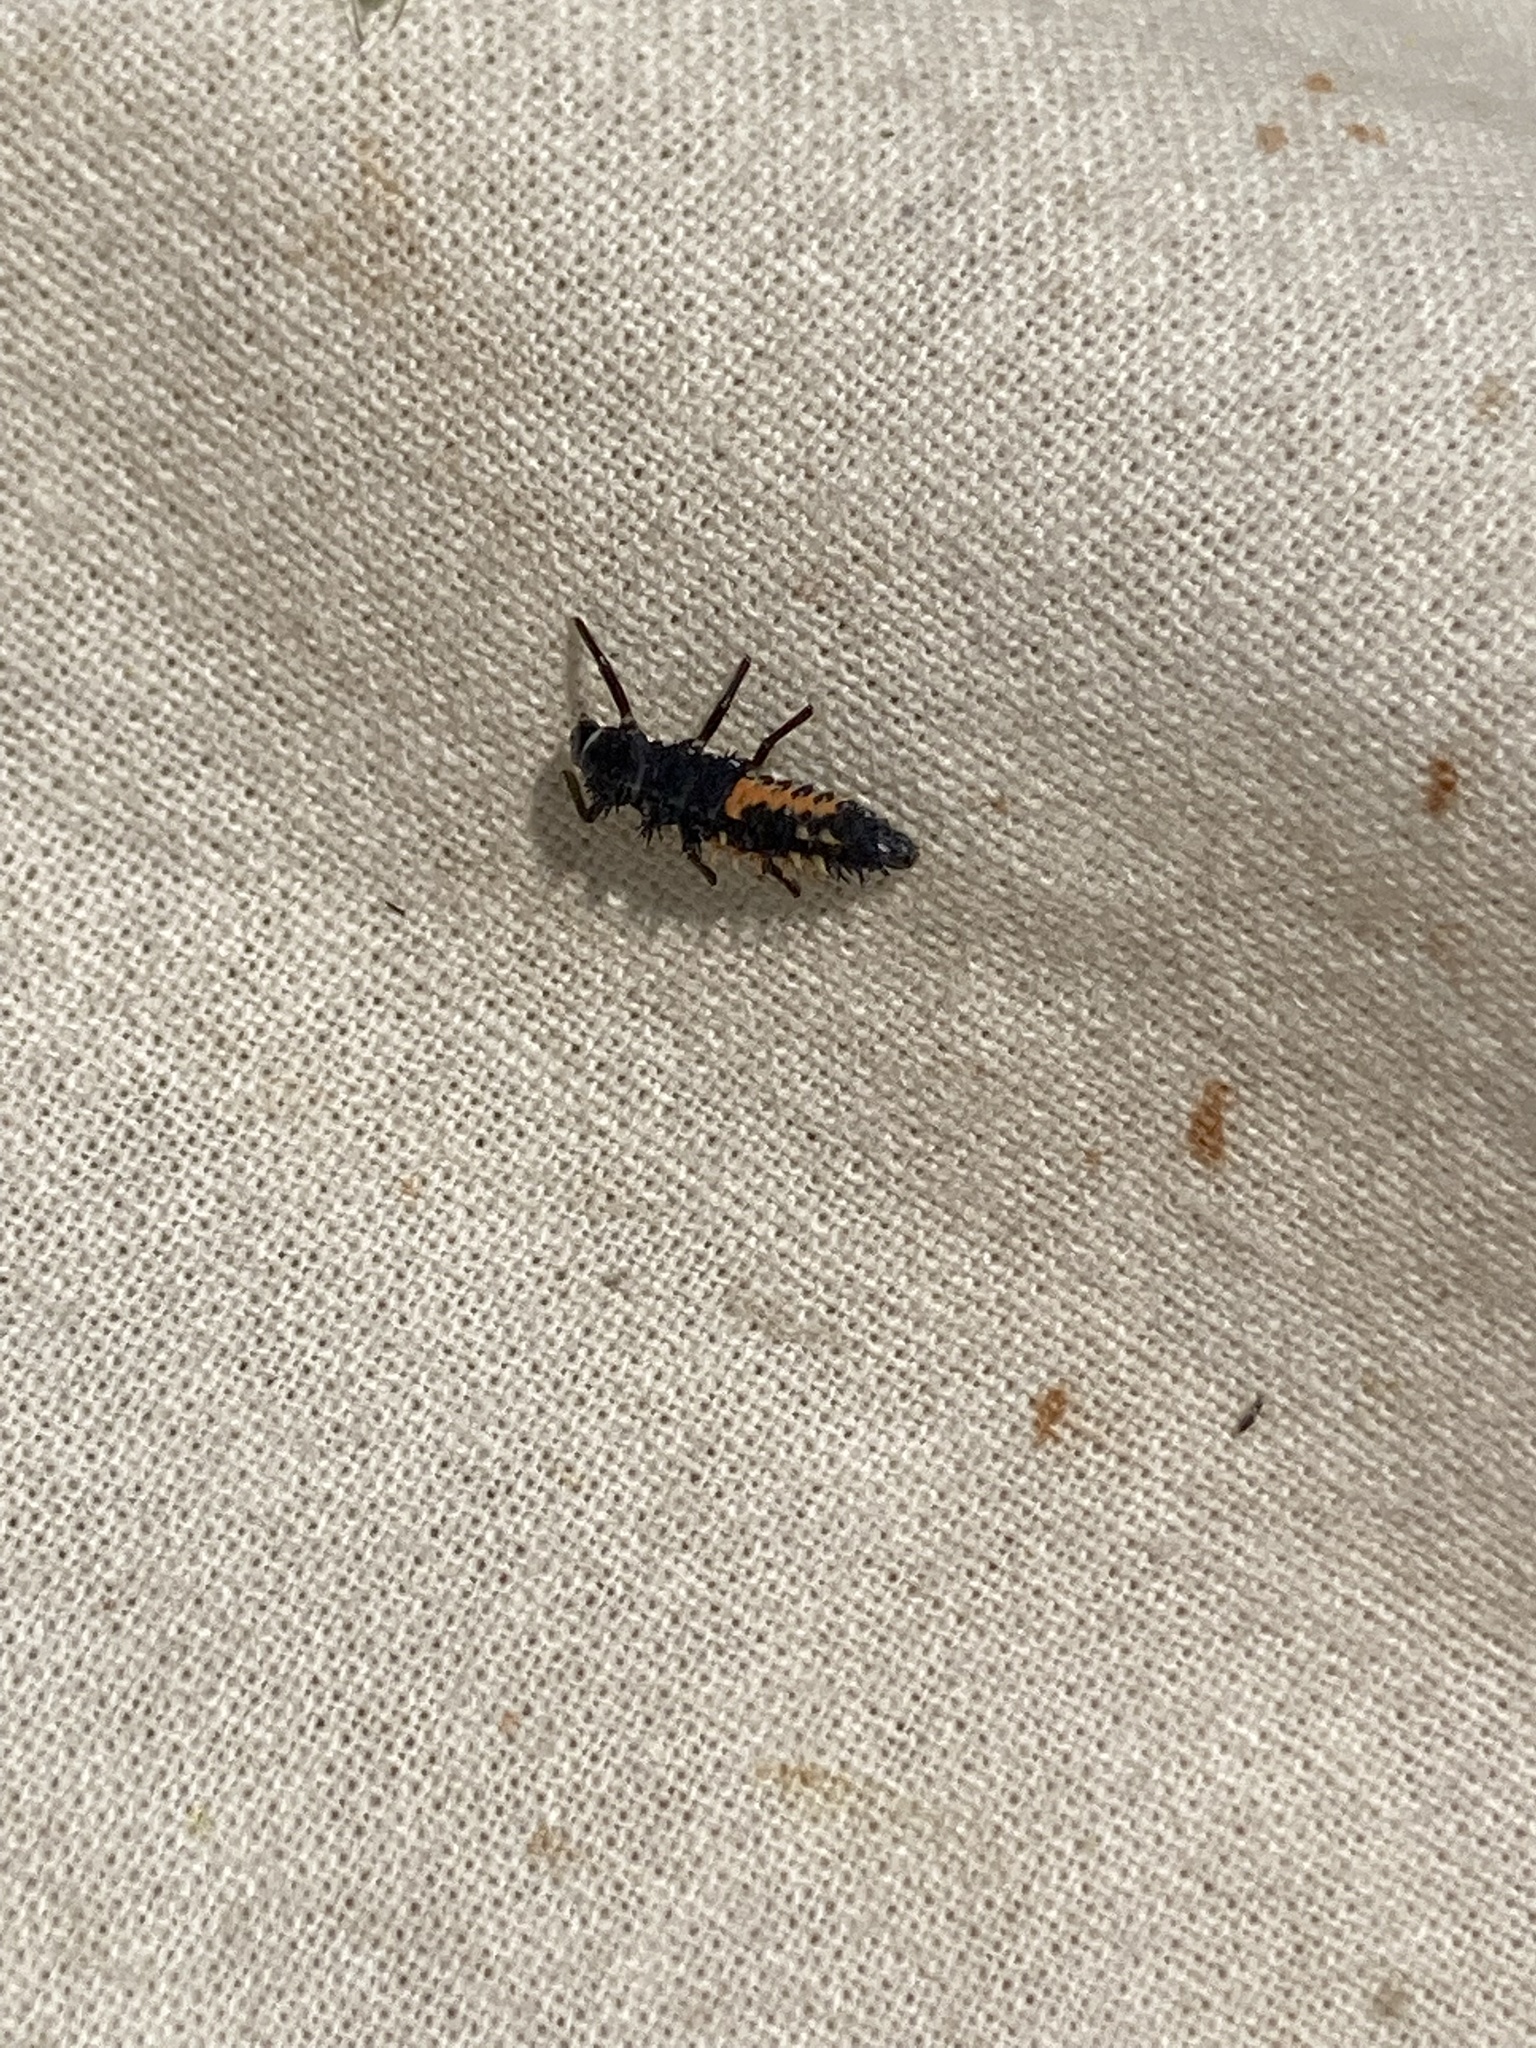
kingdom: Animalia
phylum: Arthropoda
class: Insecta
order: Coleoptera
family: Coccinellidae
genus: Harmonia
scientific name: Harmonia axyridis
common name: Harlequin ladybird
